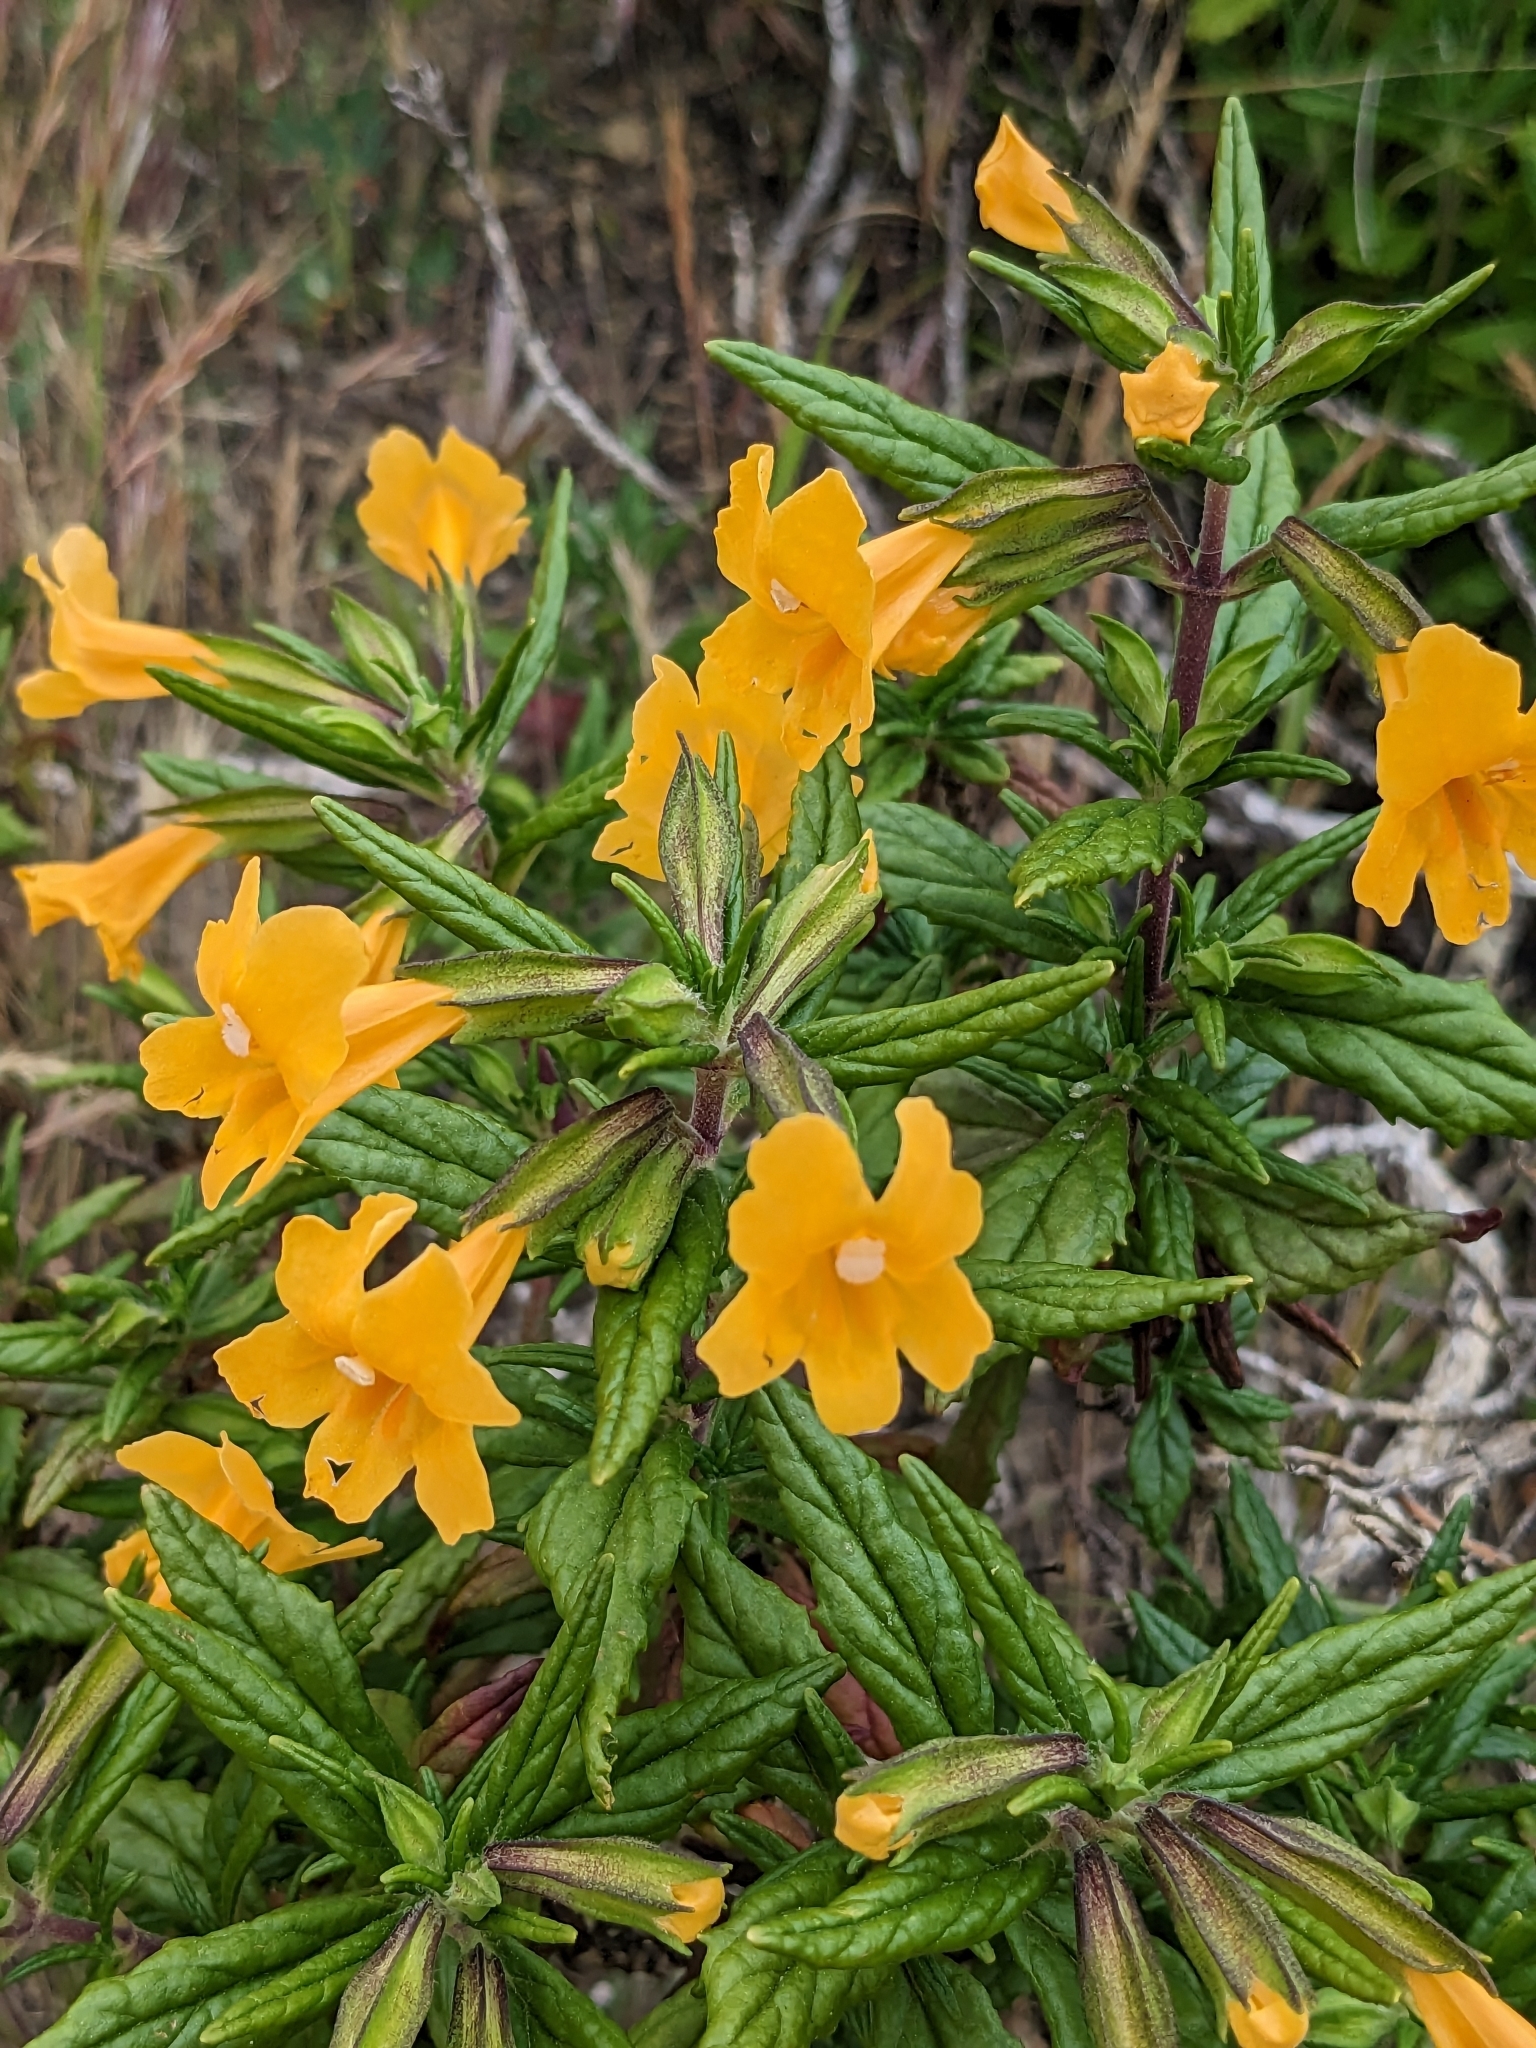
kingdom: Plantae
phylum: Tracheophyta
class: Magnoliopsida
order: Lamiales
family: Phrymaceae
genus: Diplacus
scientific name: Diplacus aurantiacus
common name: Bush monkey-flower
